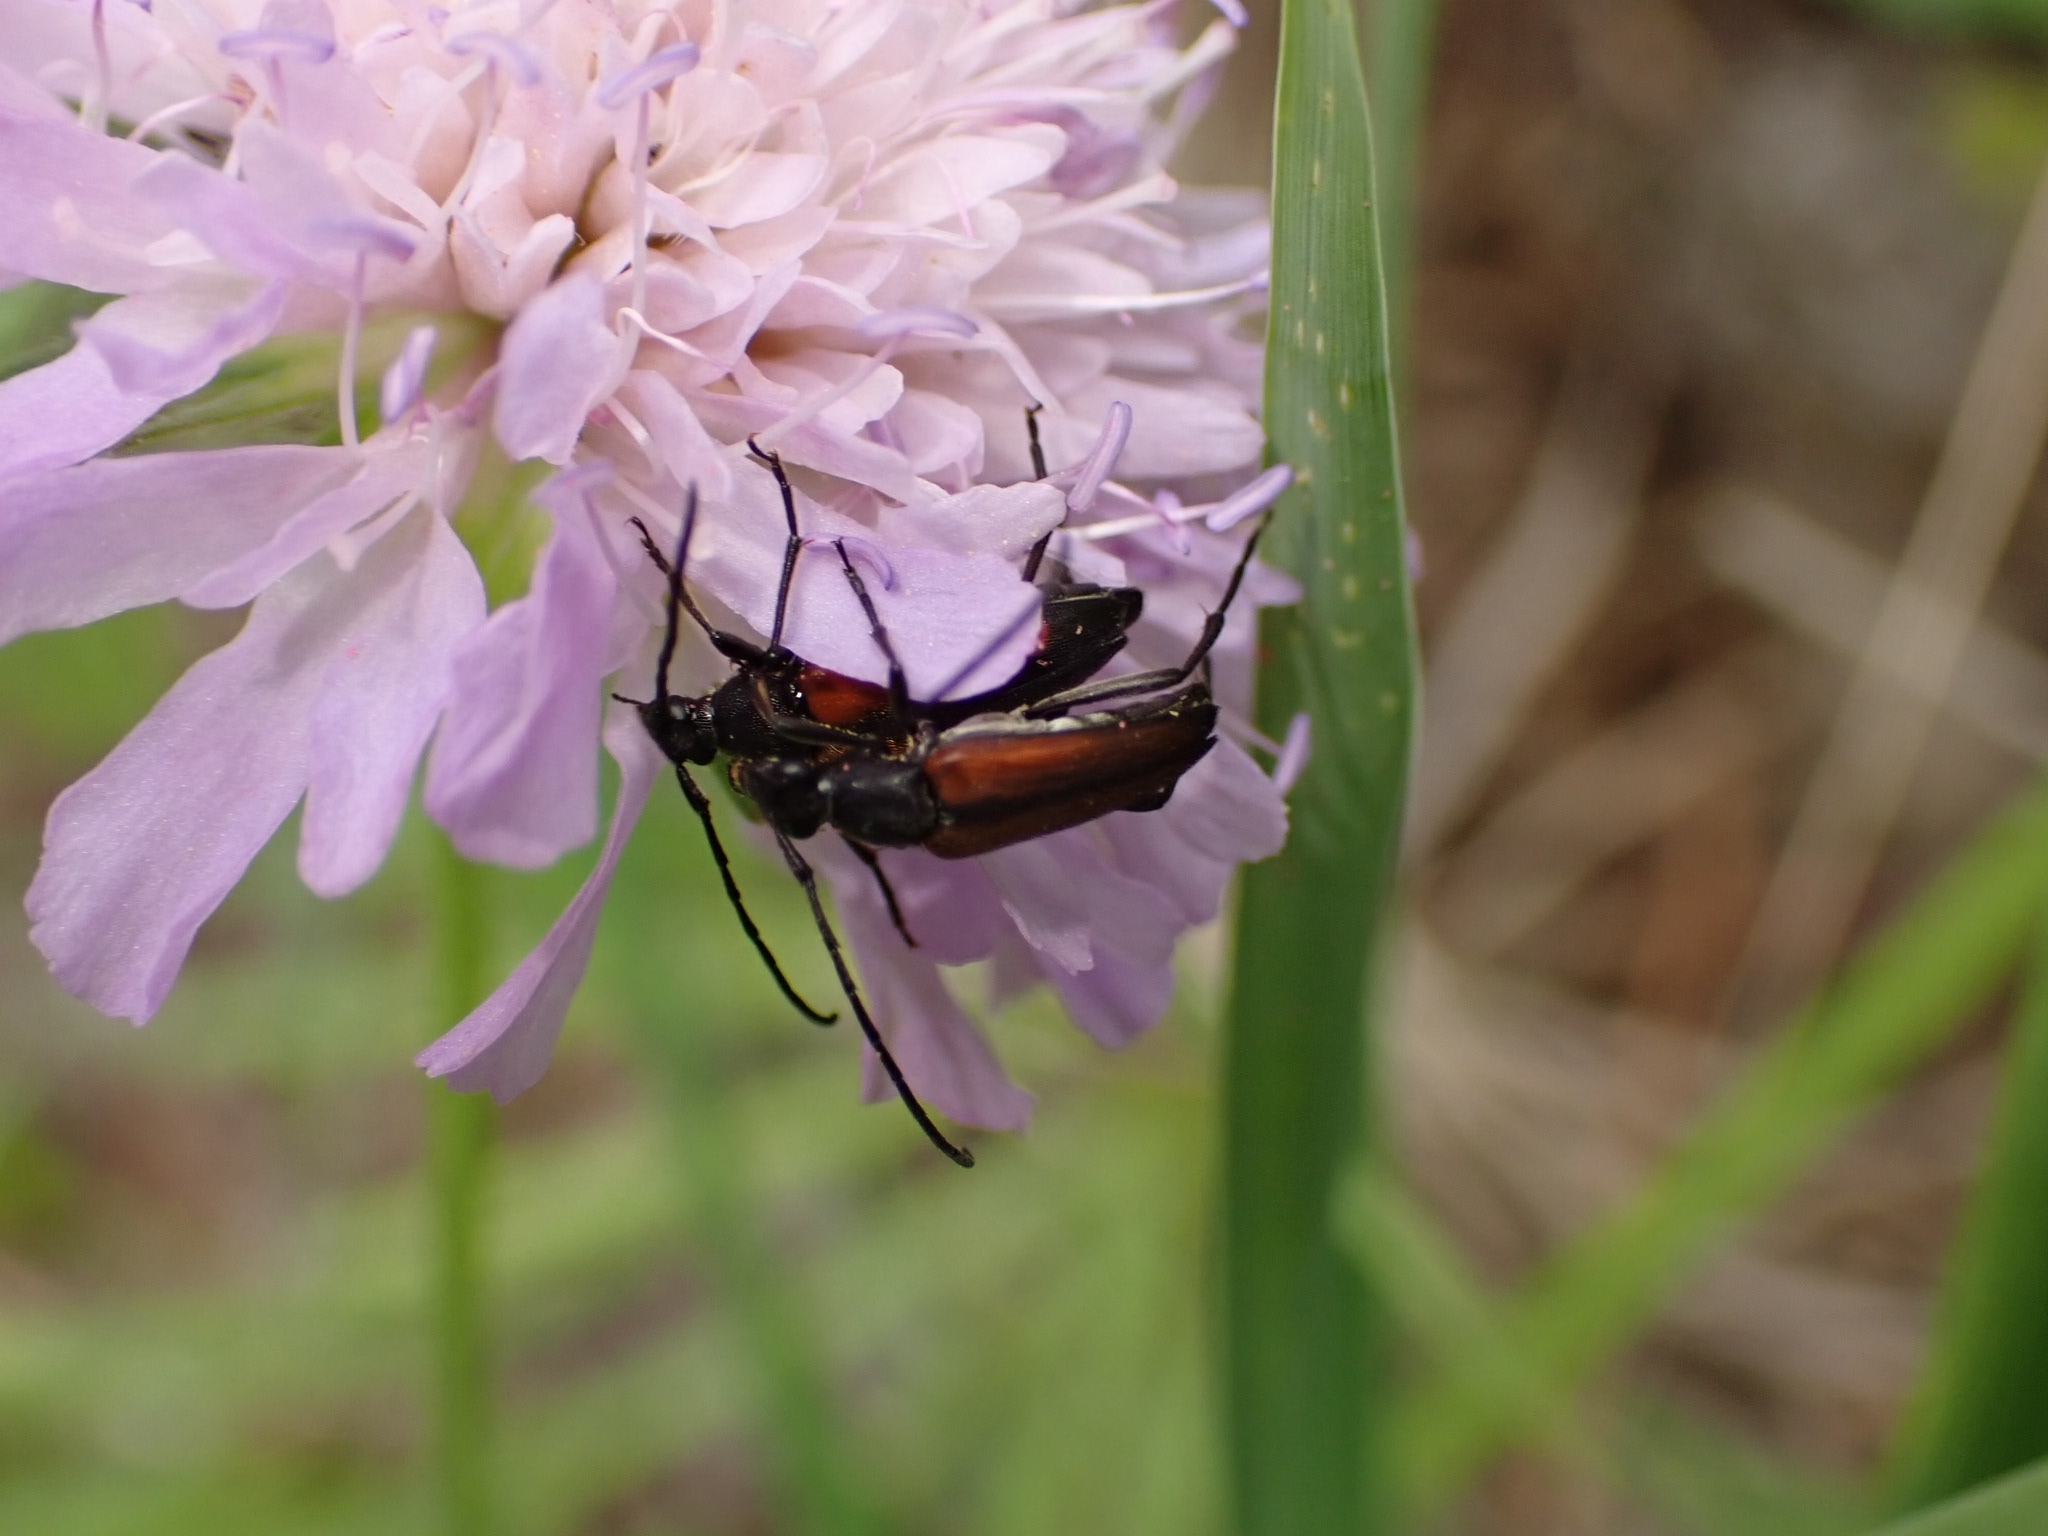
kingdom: Animalia
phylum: Arthropoda
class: Insecta
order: Coleoptera
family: Cerambycidae
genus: Stenurella
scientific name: Stenurella melanura
